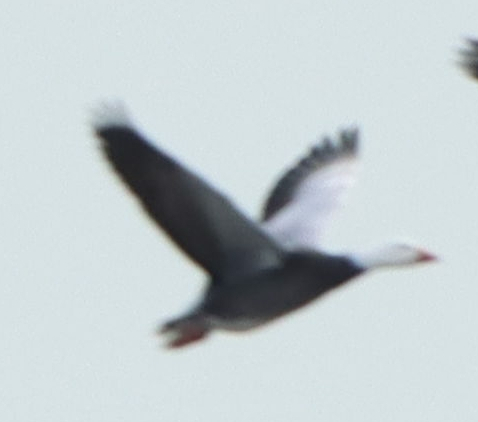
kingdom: Animalia
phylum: Chordata
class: Aves
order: Anseriformes
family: Anatidae
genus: Anser
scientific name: Anser caerulescens
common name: Snow goose
